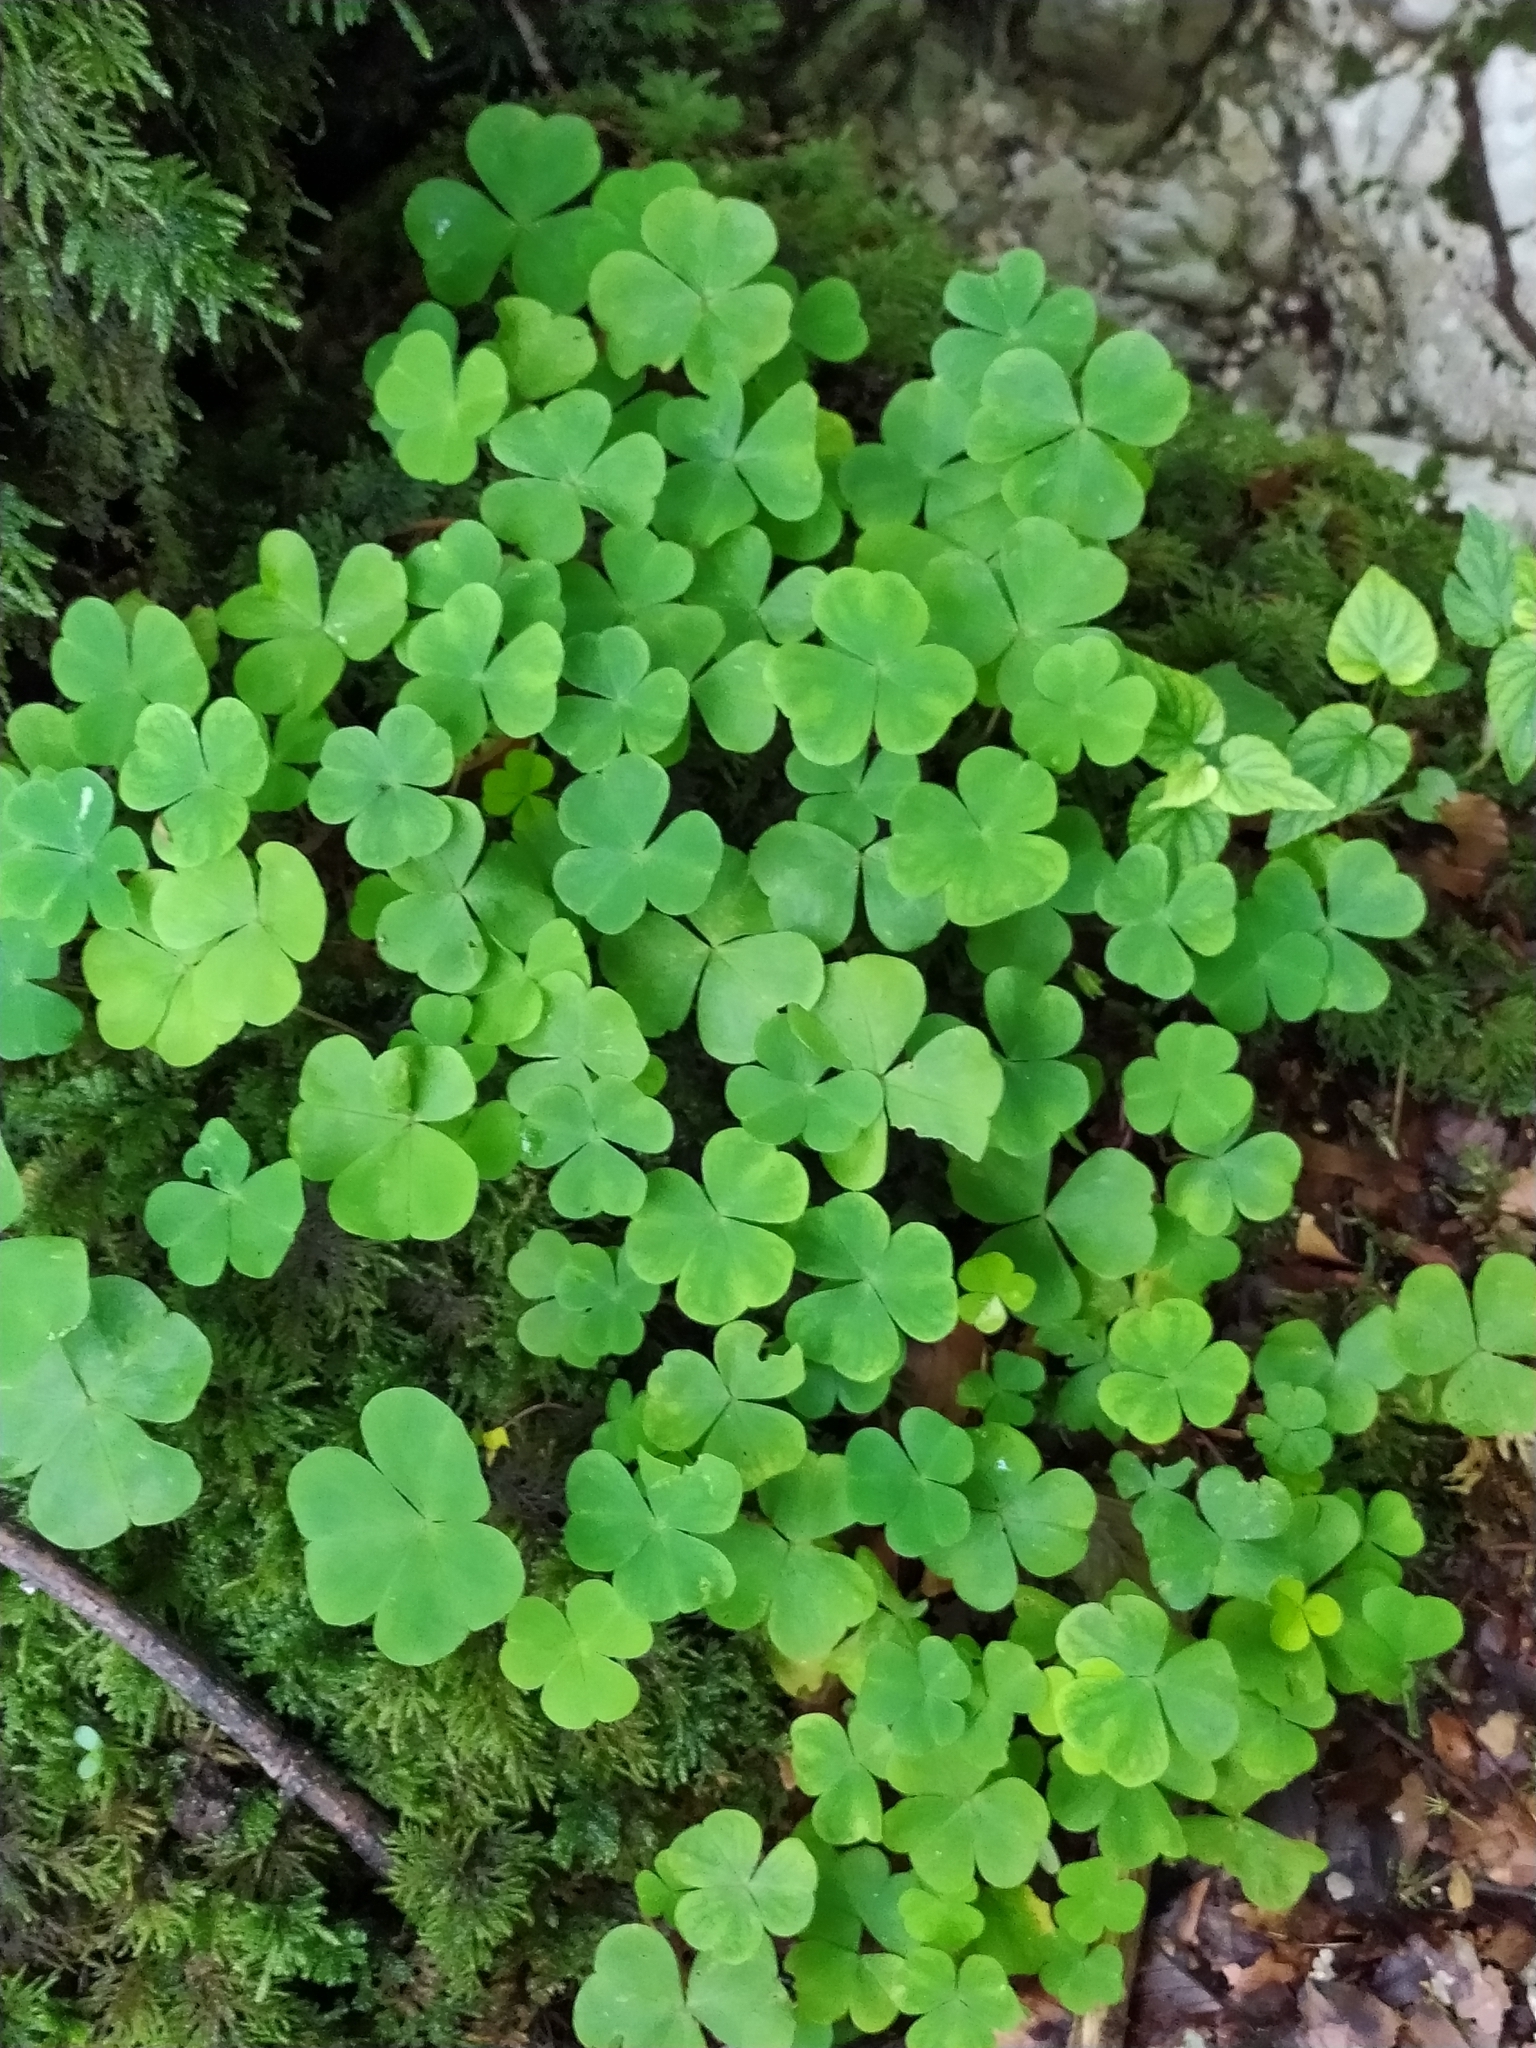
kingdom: Plantae
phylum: Tracheophyta
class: Magnoliopsida
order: Oxalidales
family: Oxalidaceae
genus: Oxalis
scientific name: Oxalis acetosella
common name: Wood-sorrel
